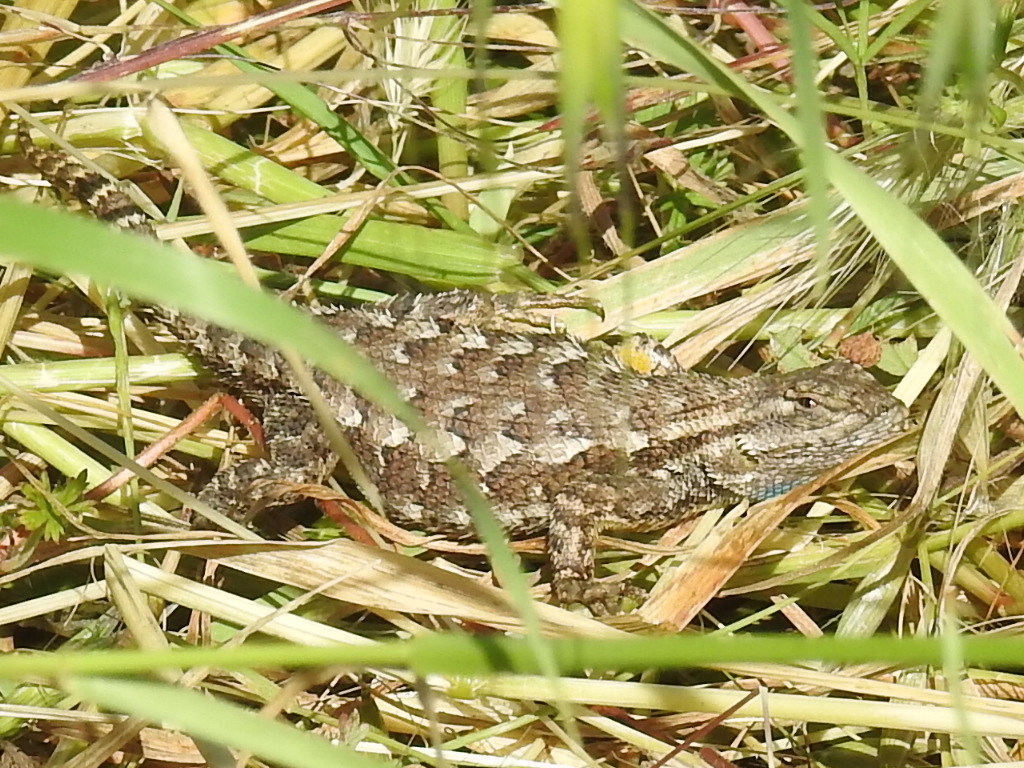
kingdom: Animalia
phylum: Chordata
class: Squamata
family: Phrynosomatidae
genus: Sceloporus
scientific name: Sceloporus occidentalis
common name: Western fence lizard
